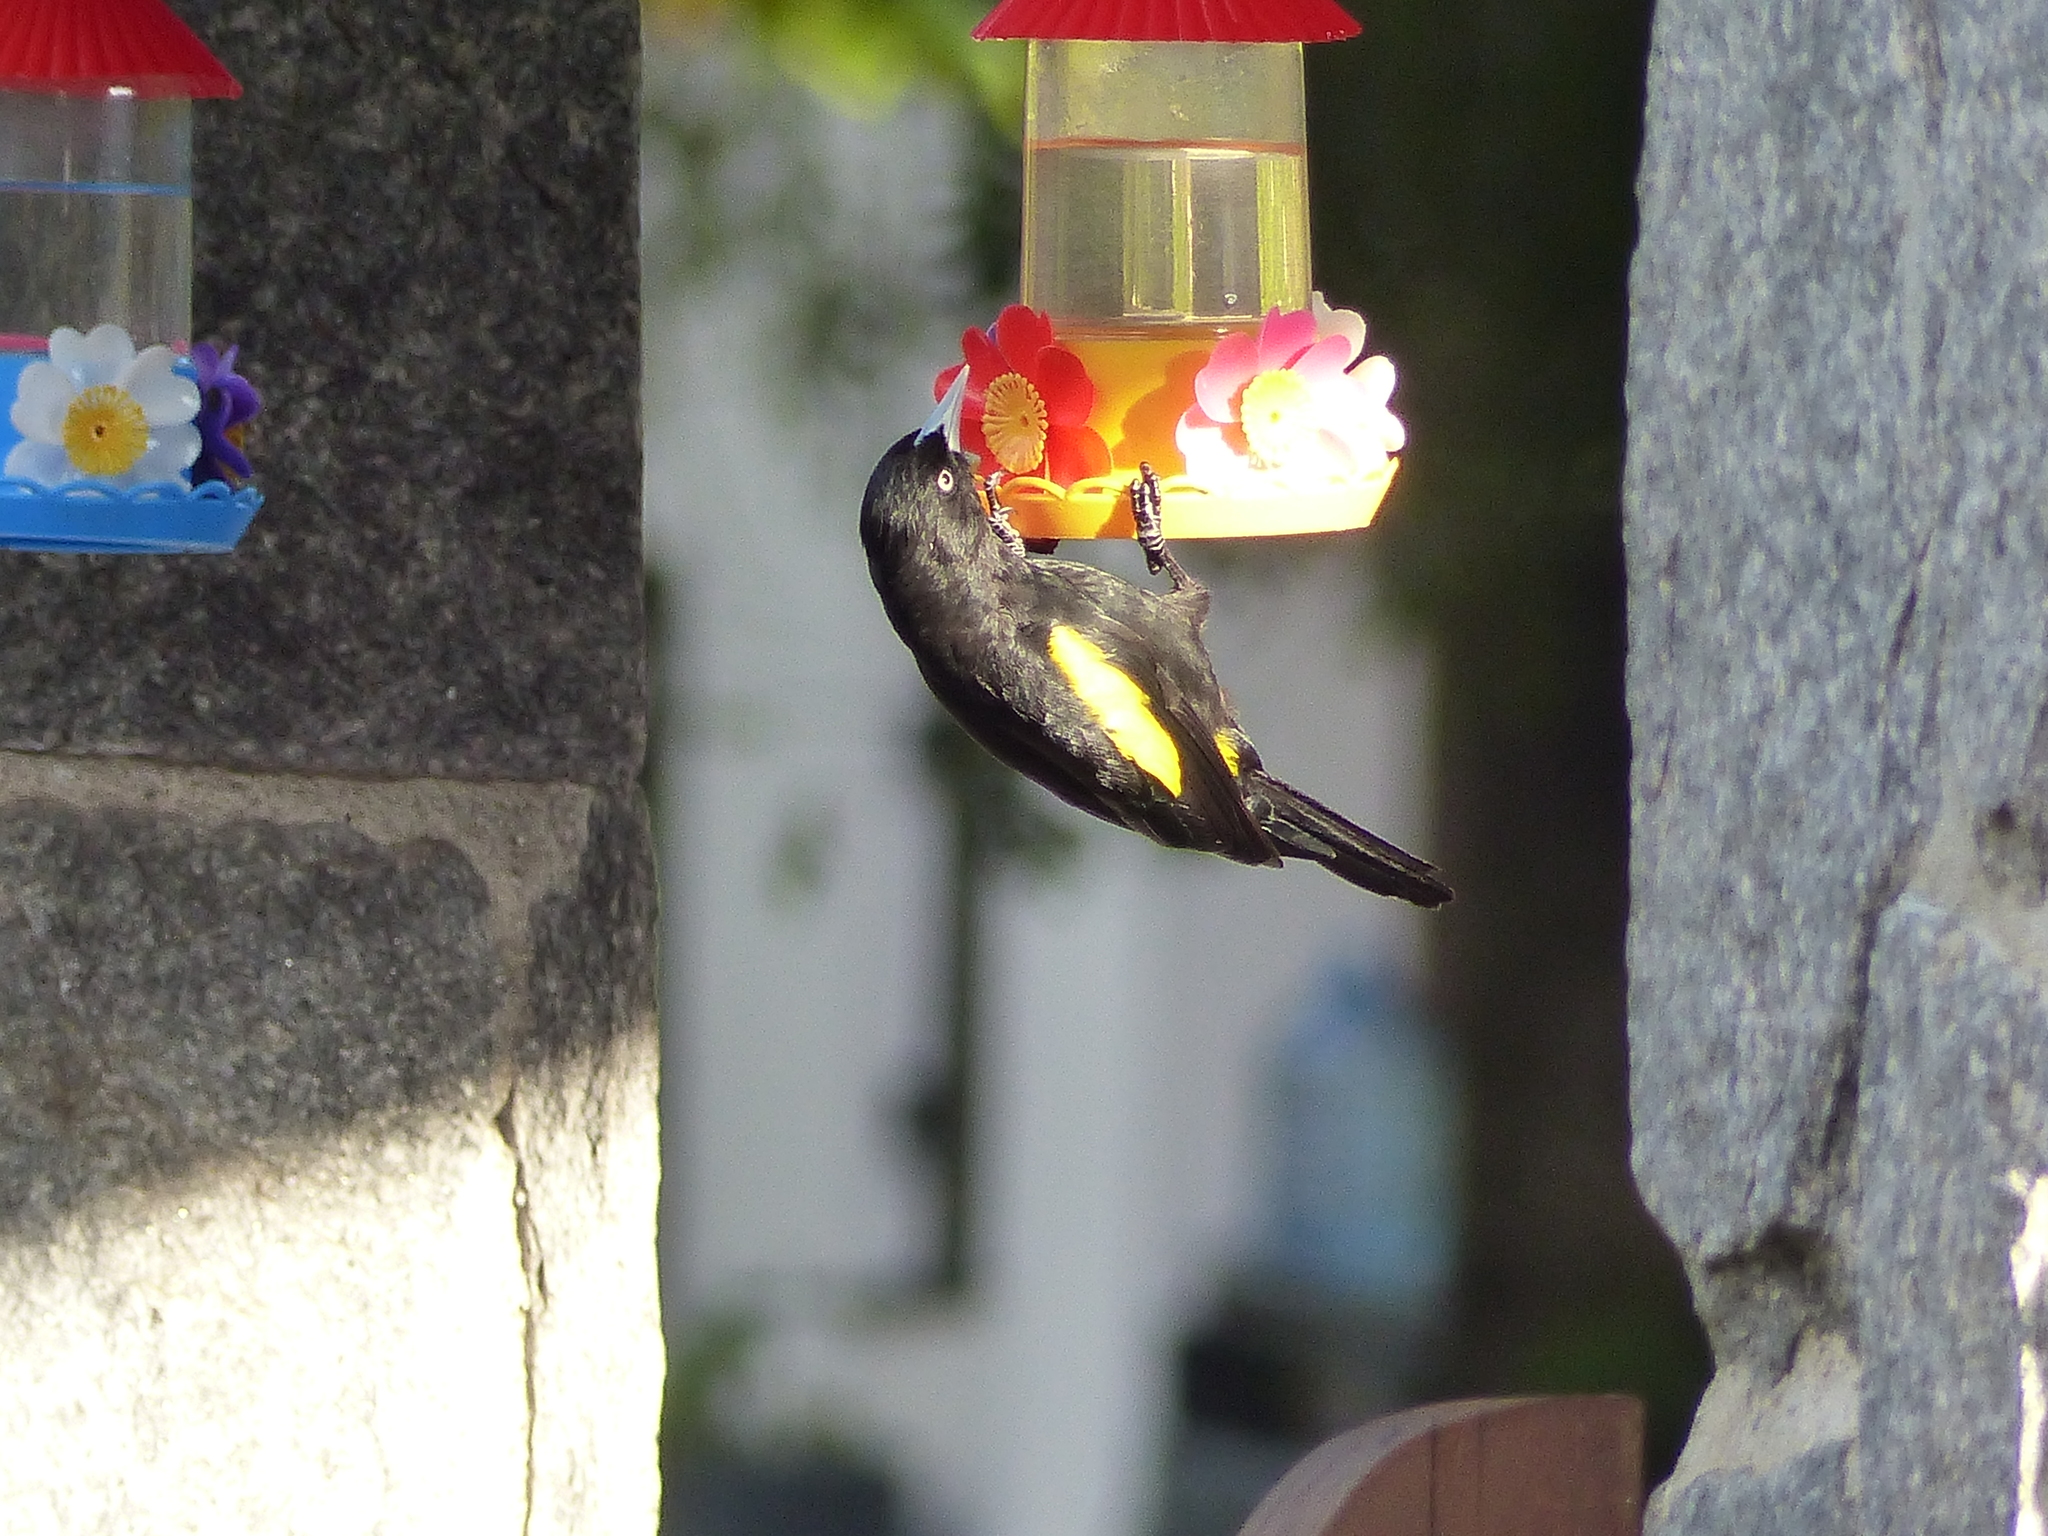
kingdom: Animalia
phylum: Chordata
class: Aves
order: Passeriformes
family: Icteridae
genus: Cacicus
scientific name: Cacicus chrysopterus
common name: Golden-winged cacique
